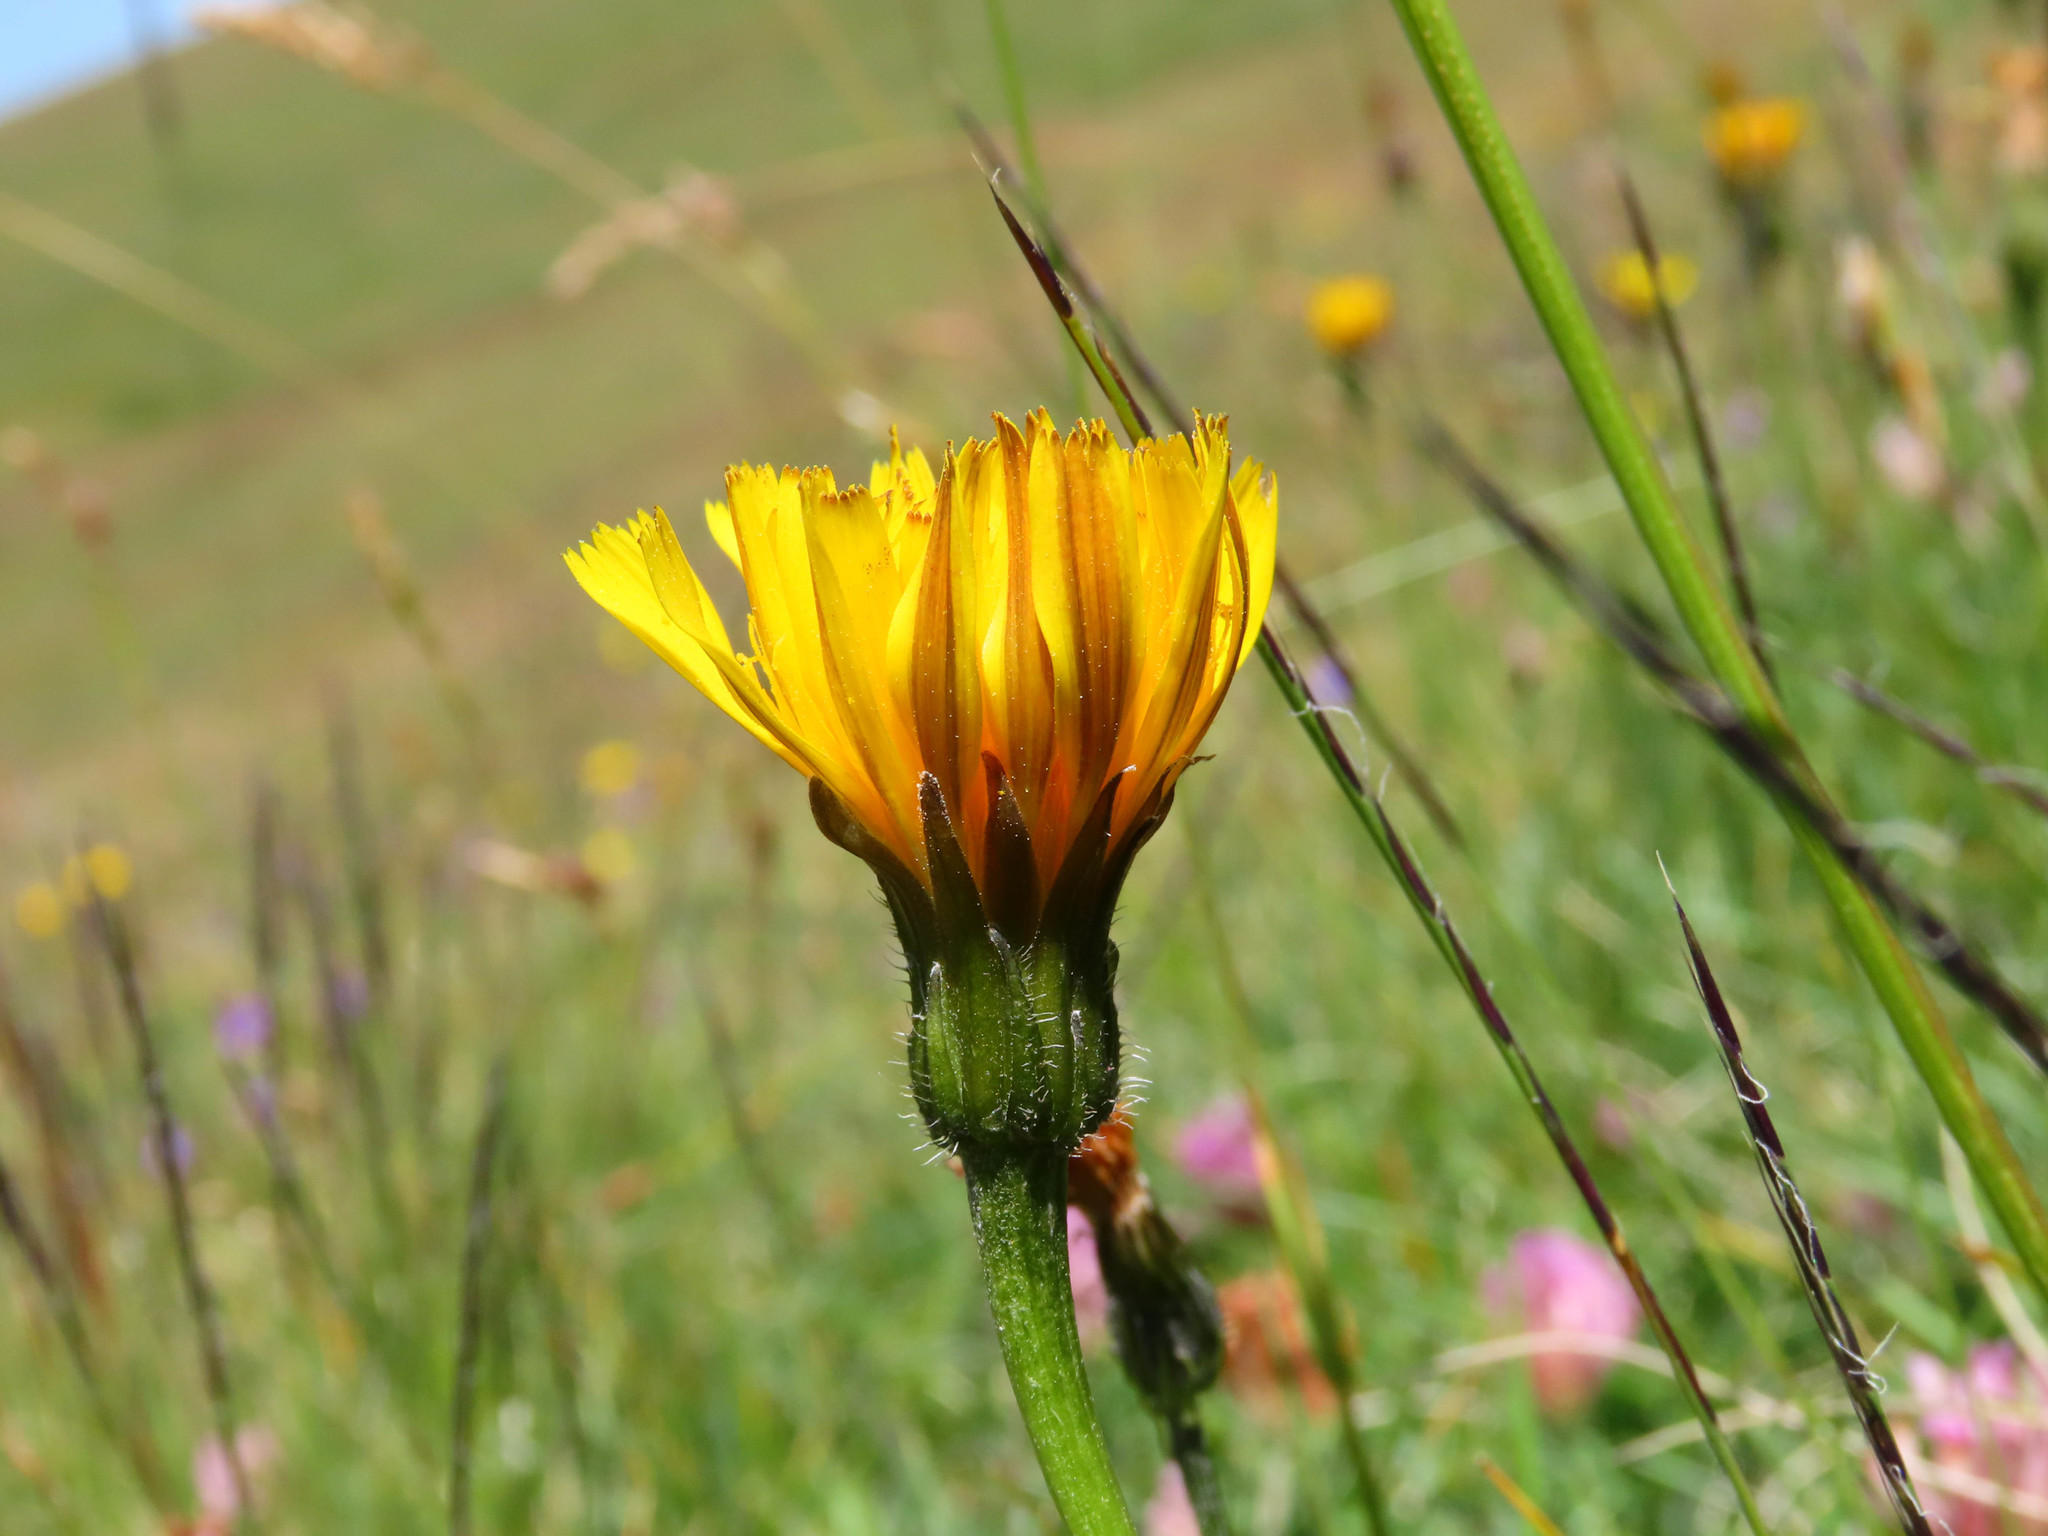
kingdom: Plantae
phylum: Tracheophyta
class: Magnoliopsida
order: Asterales
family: Asteraceae
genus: Leontodon
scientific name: Leontodon hispidus
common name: Rough hawkbit
